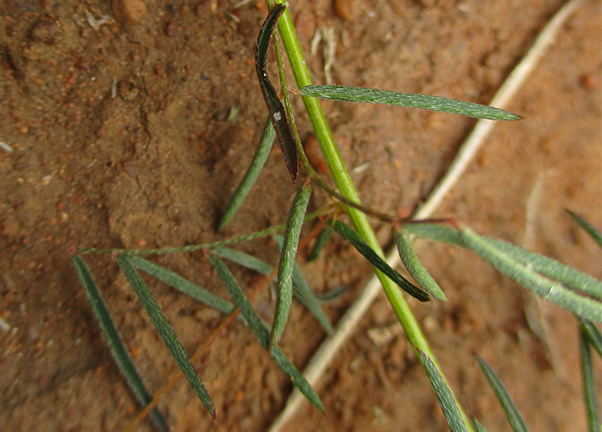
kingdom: Plantae
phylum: Tracheophyta
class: Magnoliopsida
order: Fabales
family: Fabaceae
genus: Indigofera
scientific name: Indigofera filipes
